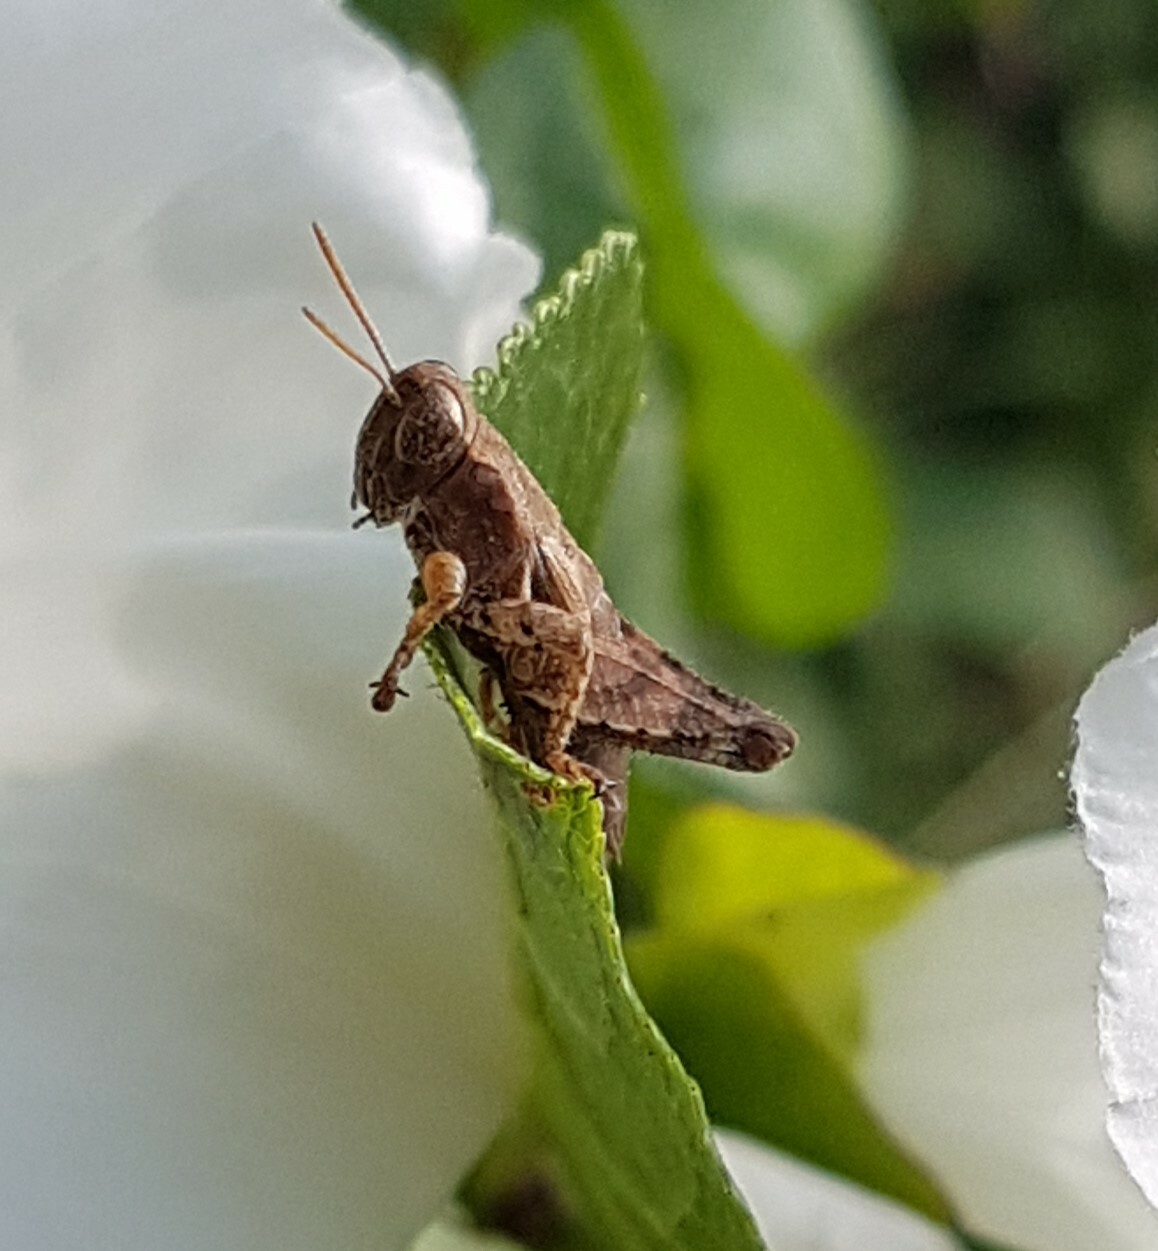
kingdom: Animalia
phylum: Arthropoda
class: Insecta
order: Orthoptera
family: Acrididae
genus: Pezotettix
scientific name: Pezotettix giornae
